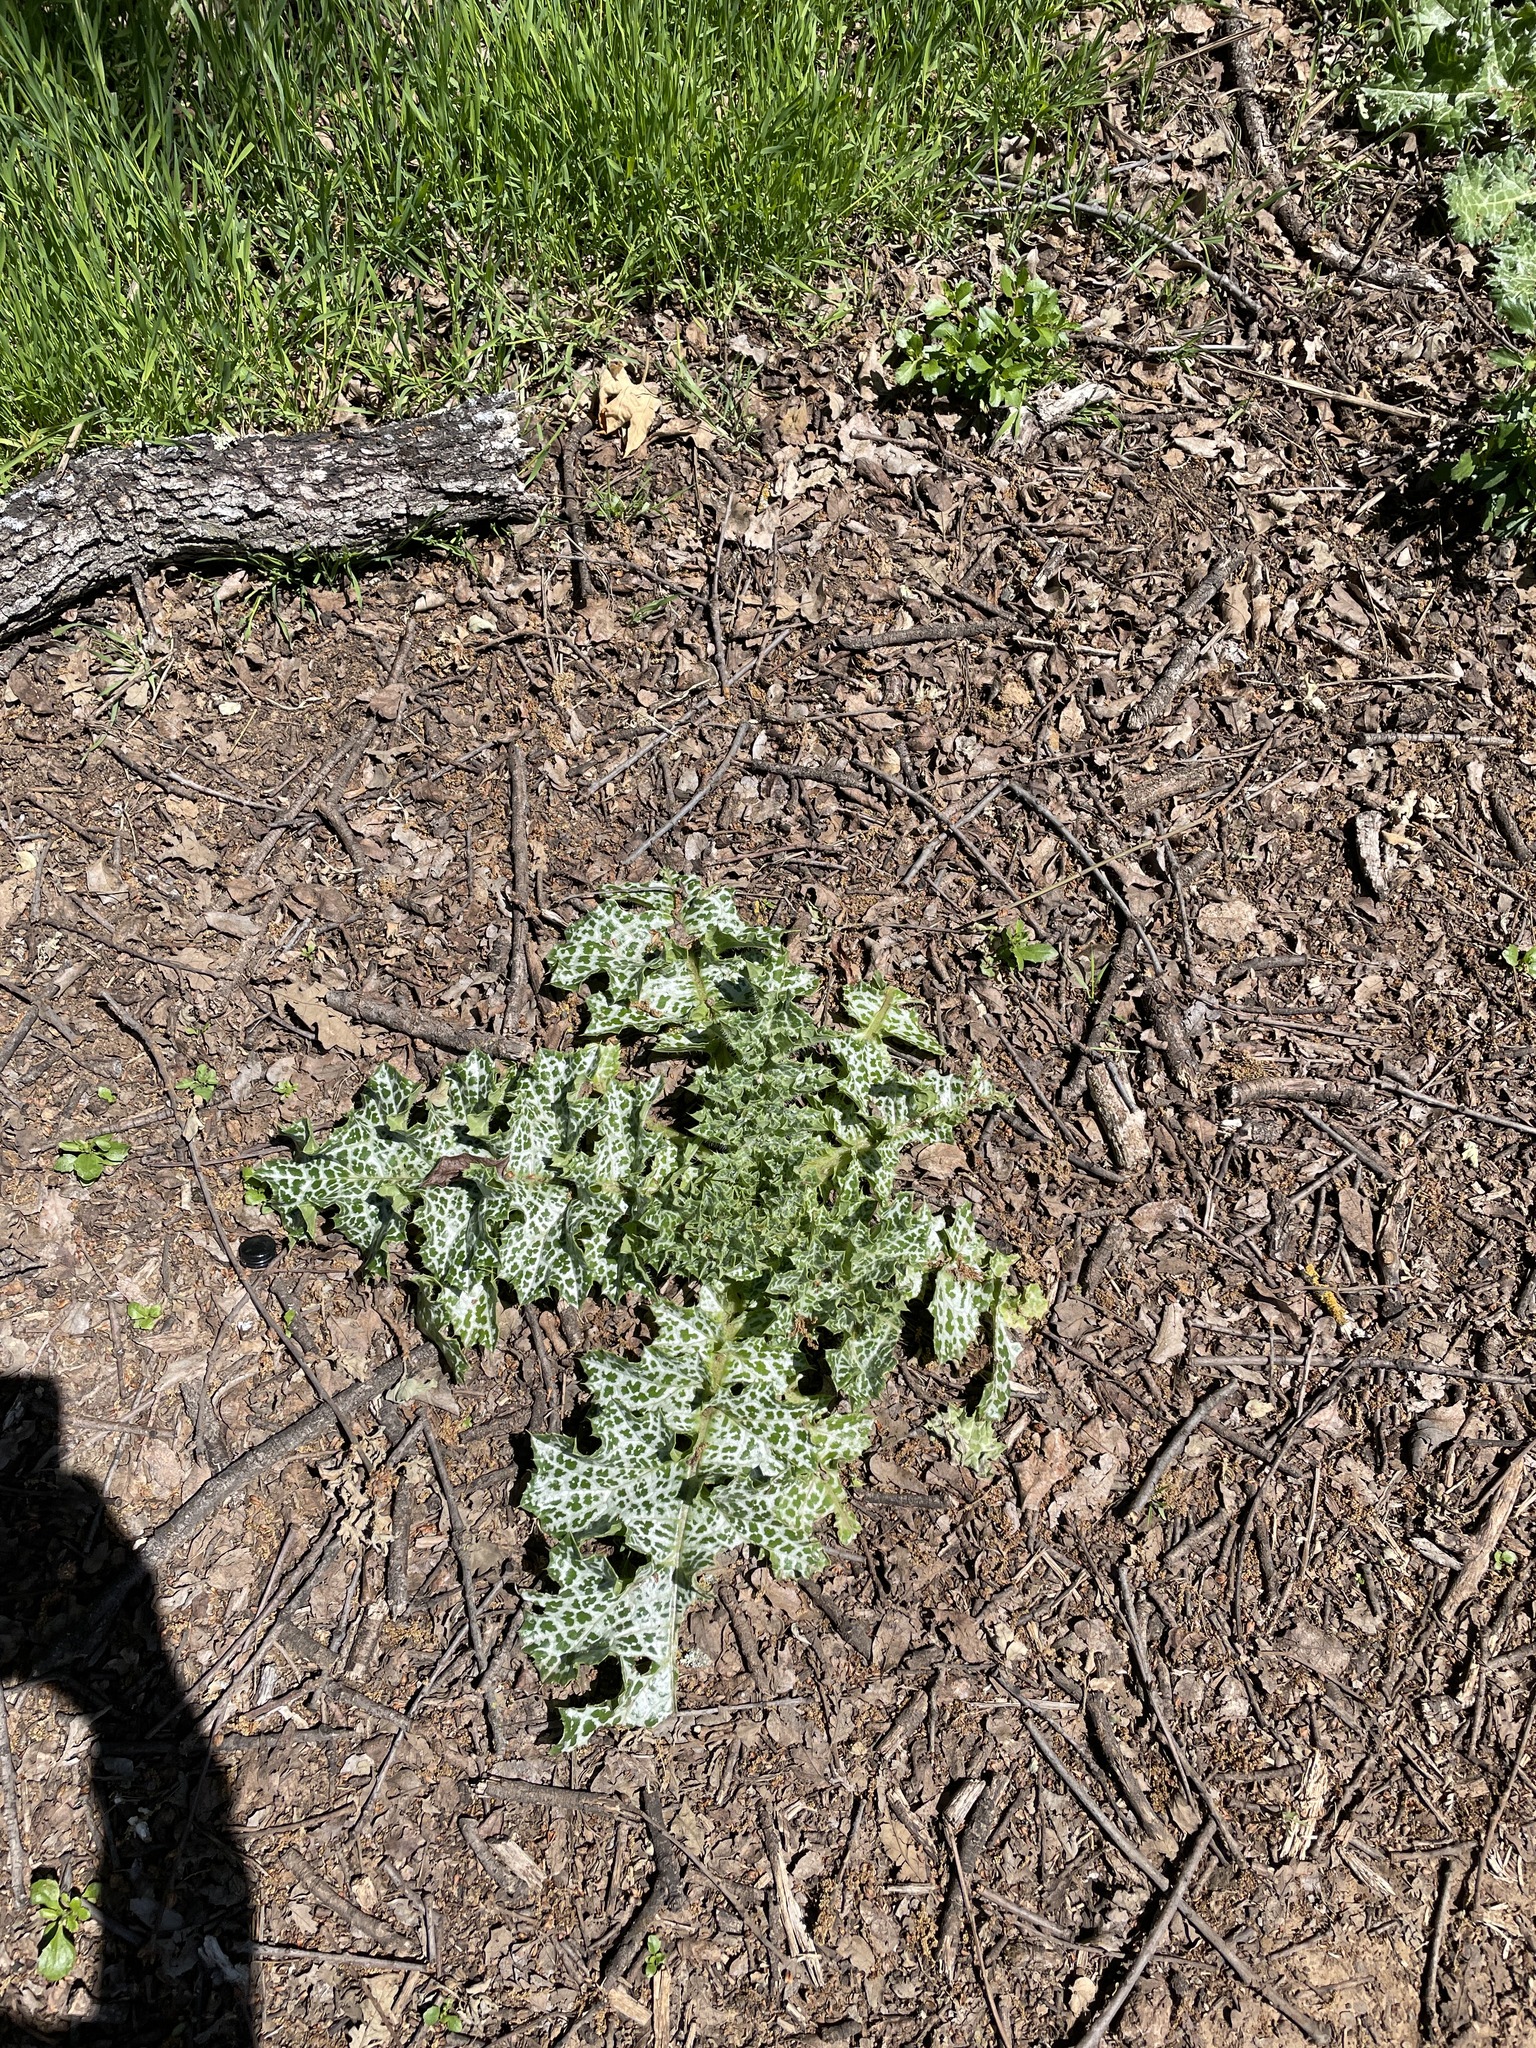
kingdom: Plantae
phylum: Tracheophyta
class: Magnoliopsida
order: Asterales
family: Asteraceae
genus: Silybum
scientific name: Silybum marianum
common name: Milk thistle
